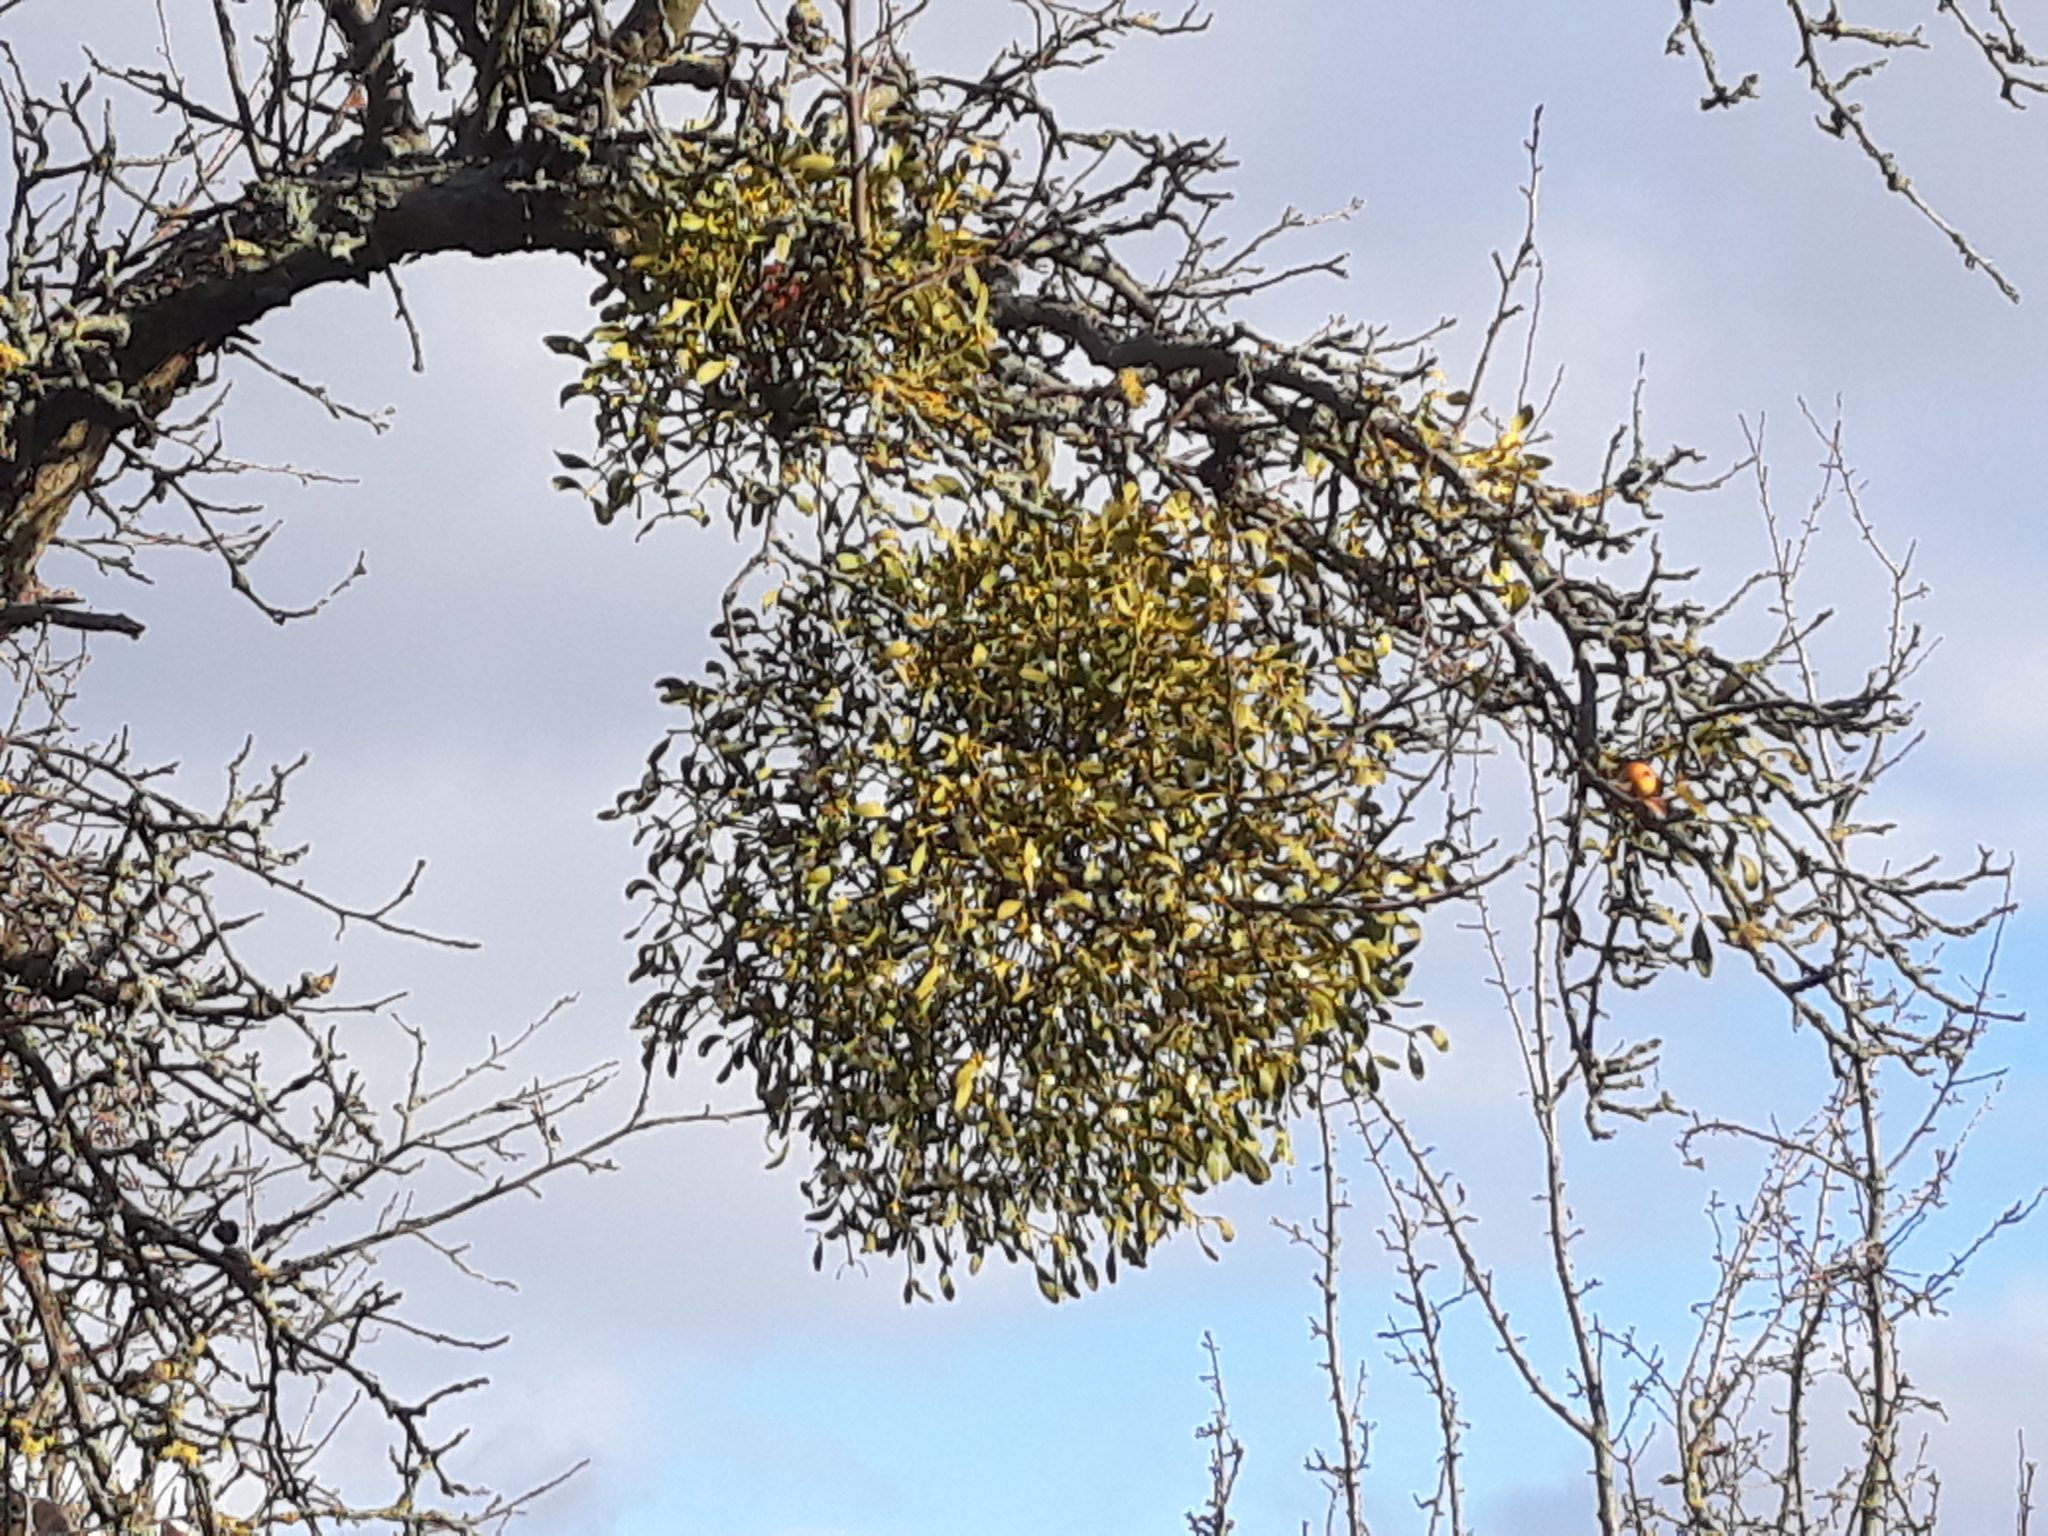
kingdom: Plantae
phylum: Tracheophyta
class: Magnoliopsida
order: Santalales
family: Viscaceae
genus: Viscum
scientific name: Viscum album
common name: Mistletoe
